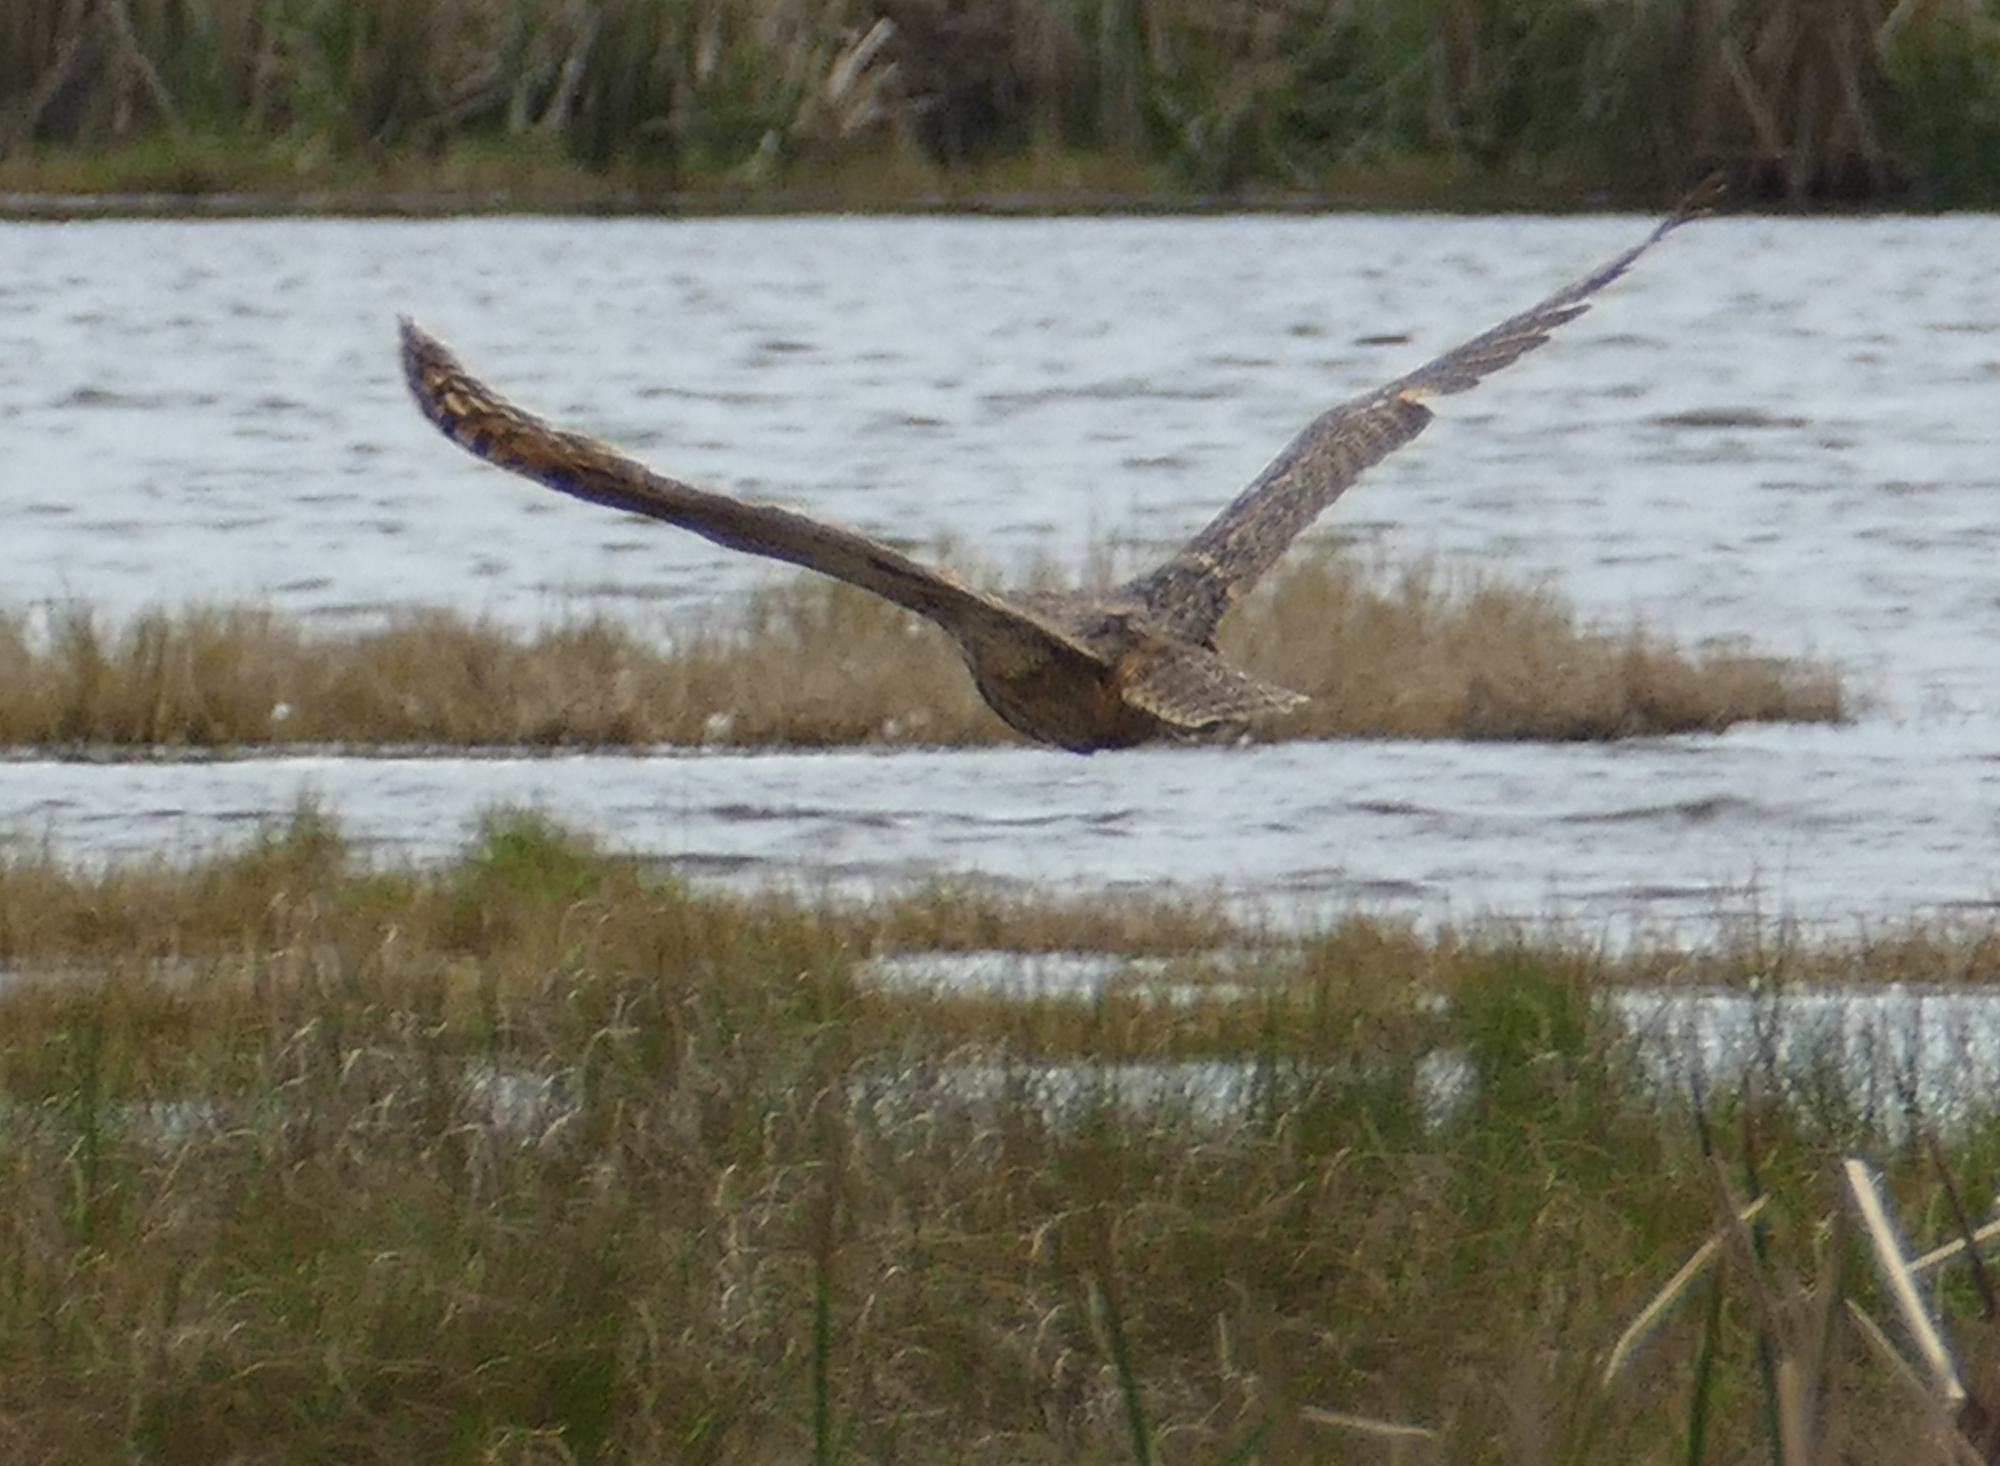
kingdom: Animalia
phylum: Chordata
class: Aves
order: Strigiformes
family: Strigidae
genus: Bubo
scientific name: Bubo virginianus
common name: Great horned owl
